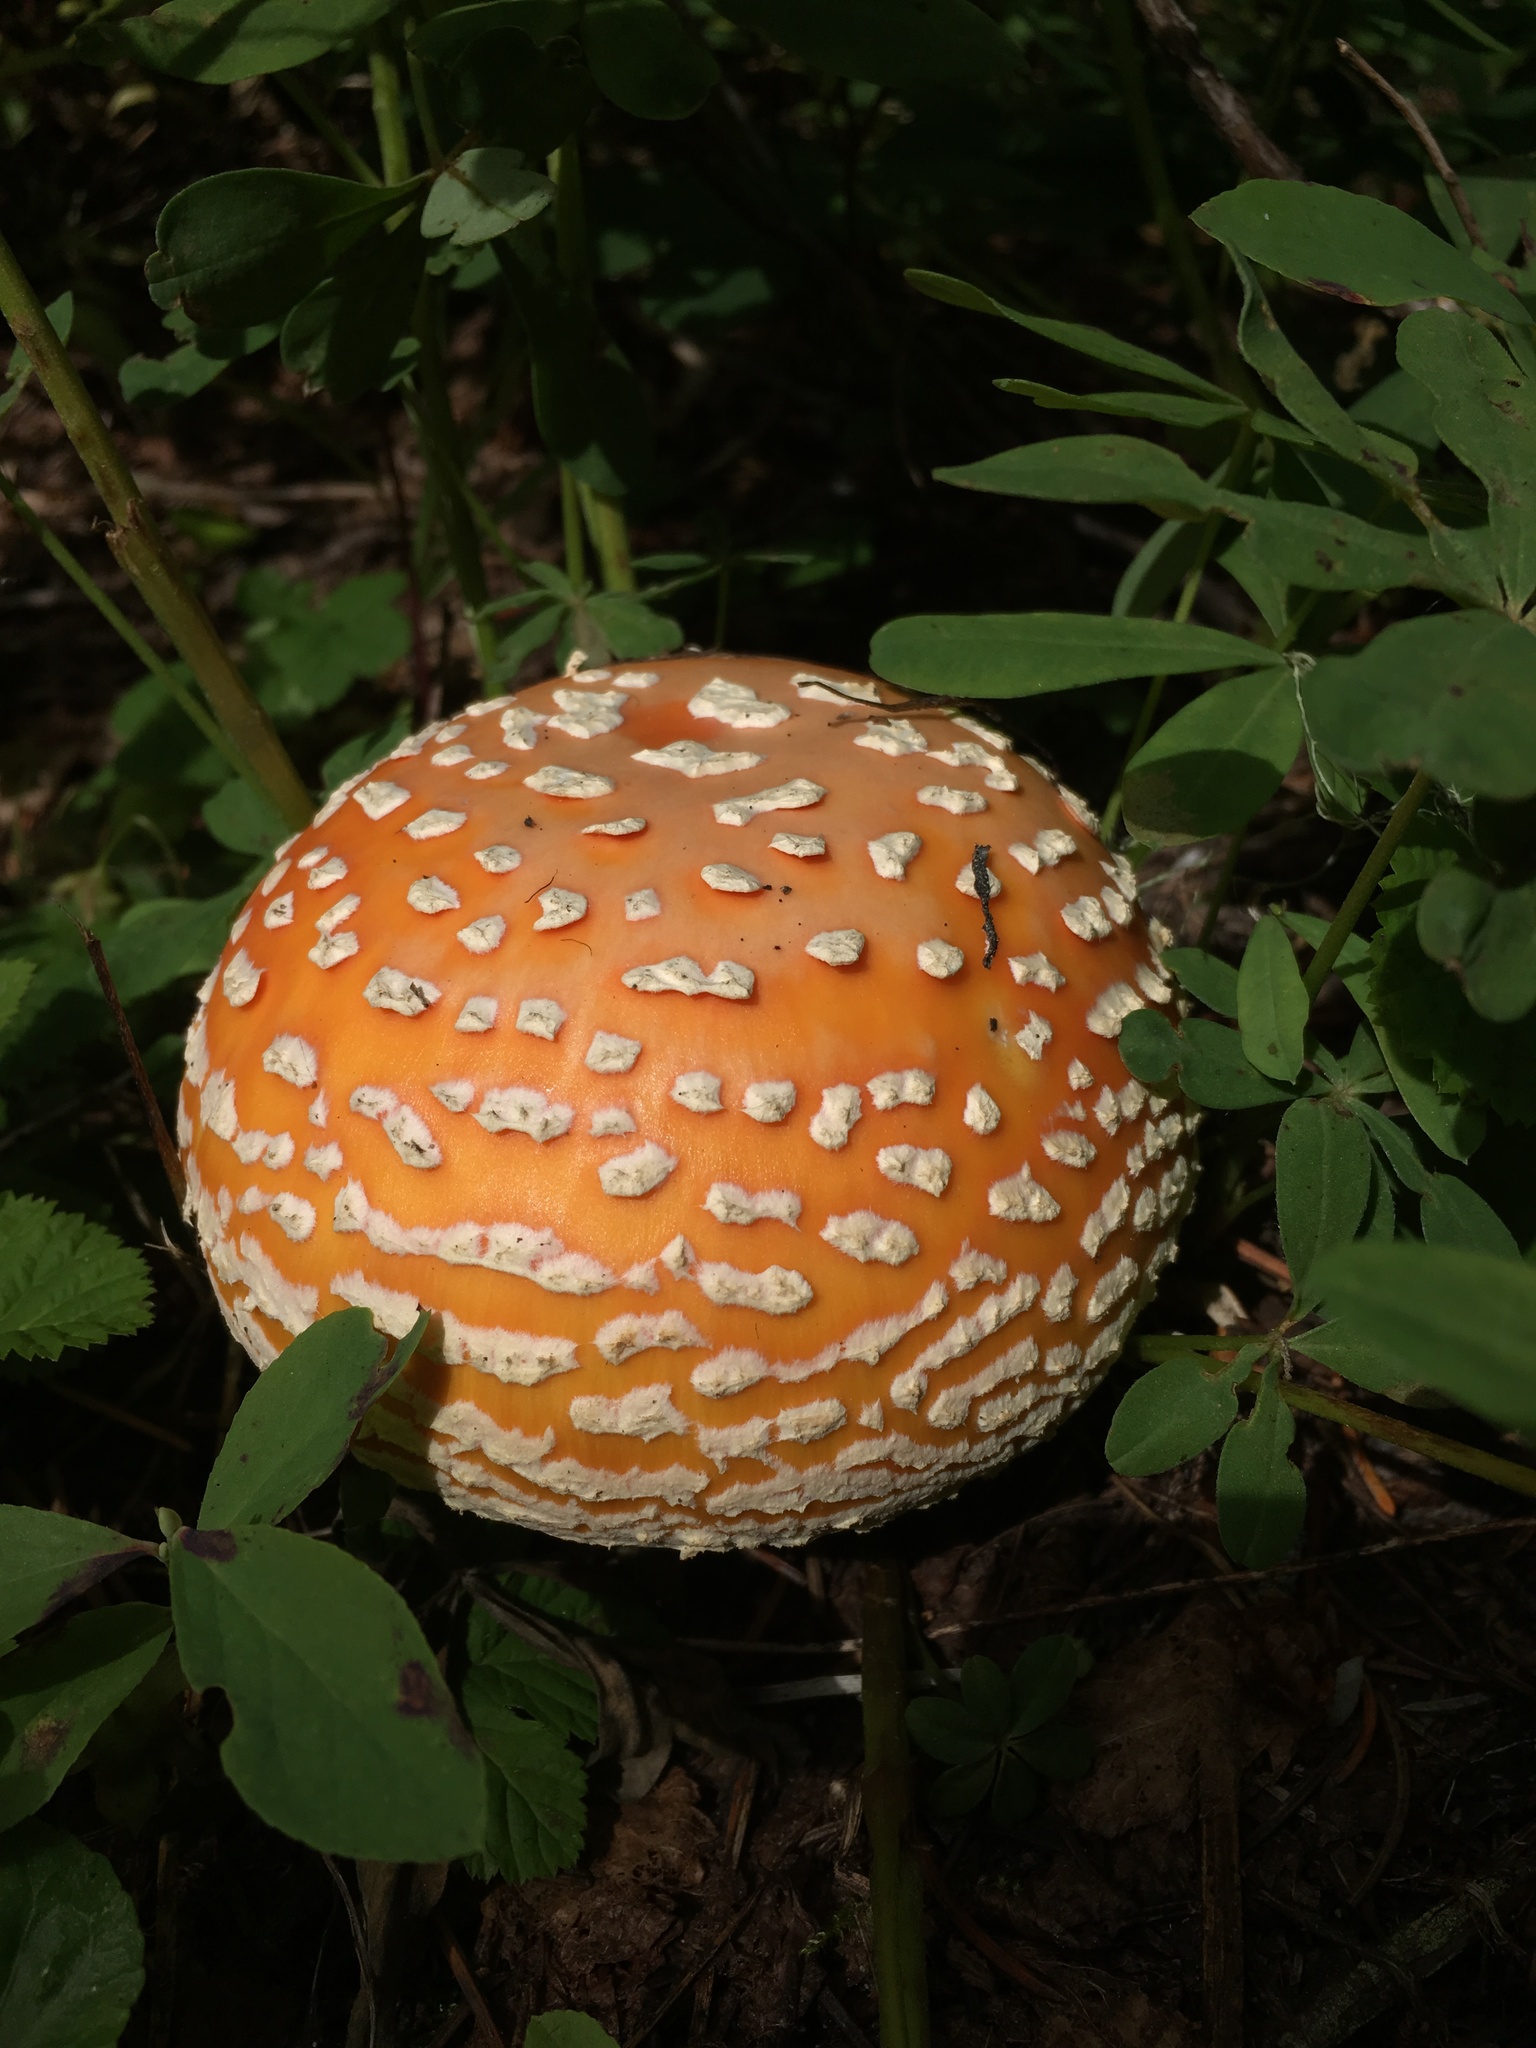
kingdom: Fungi
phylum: Basidiomycota
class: Agaricomycetes
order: Agaricales
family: Amanitaceae
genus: Amanita
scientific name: Amanita muscaria
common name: Fly agaric
